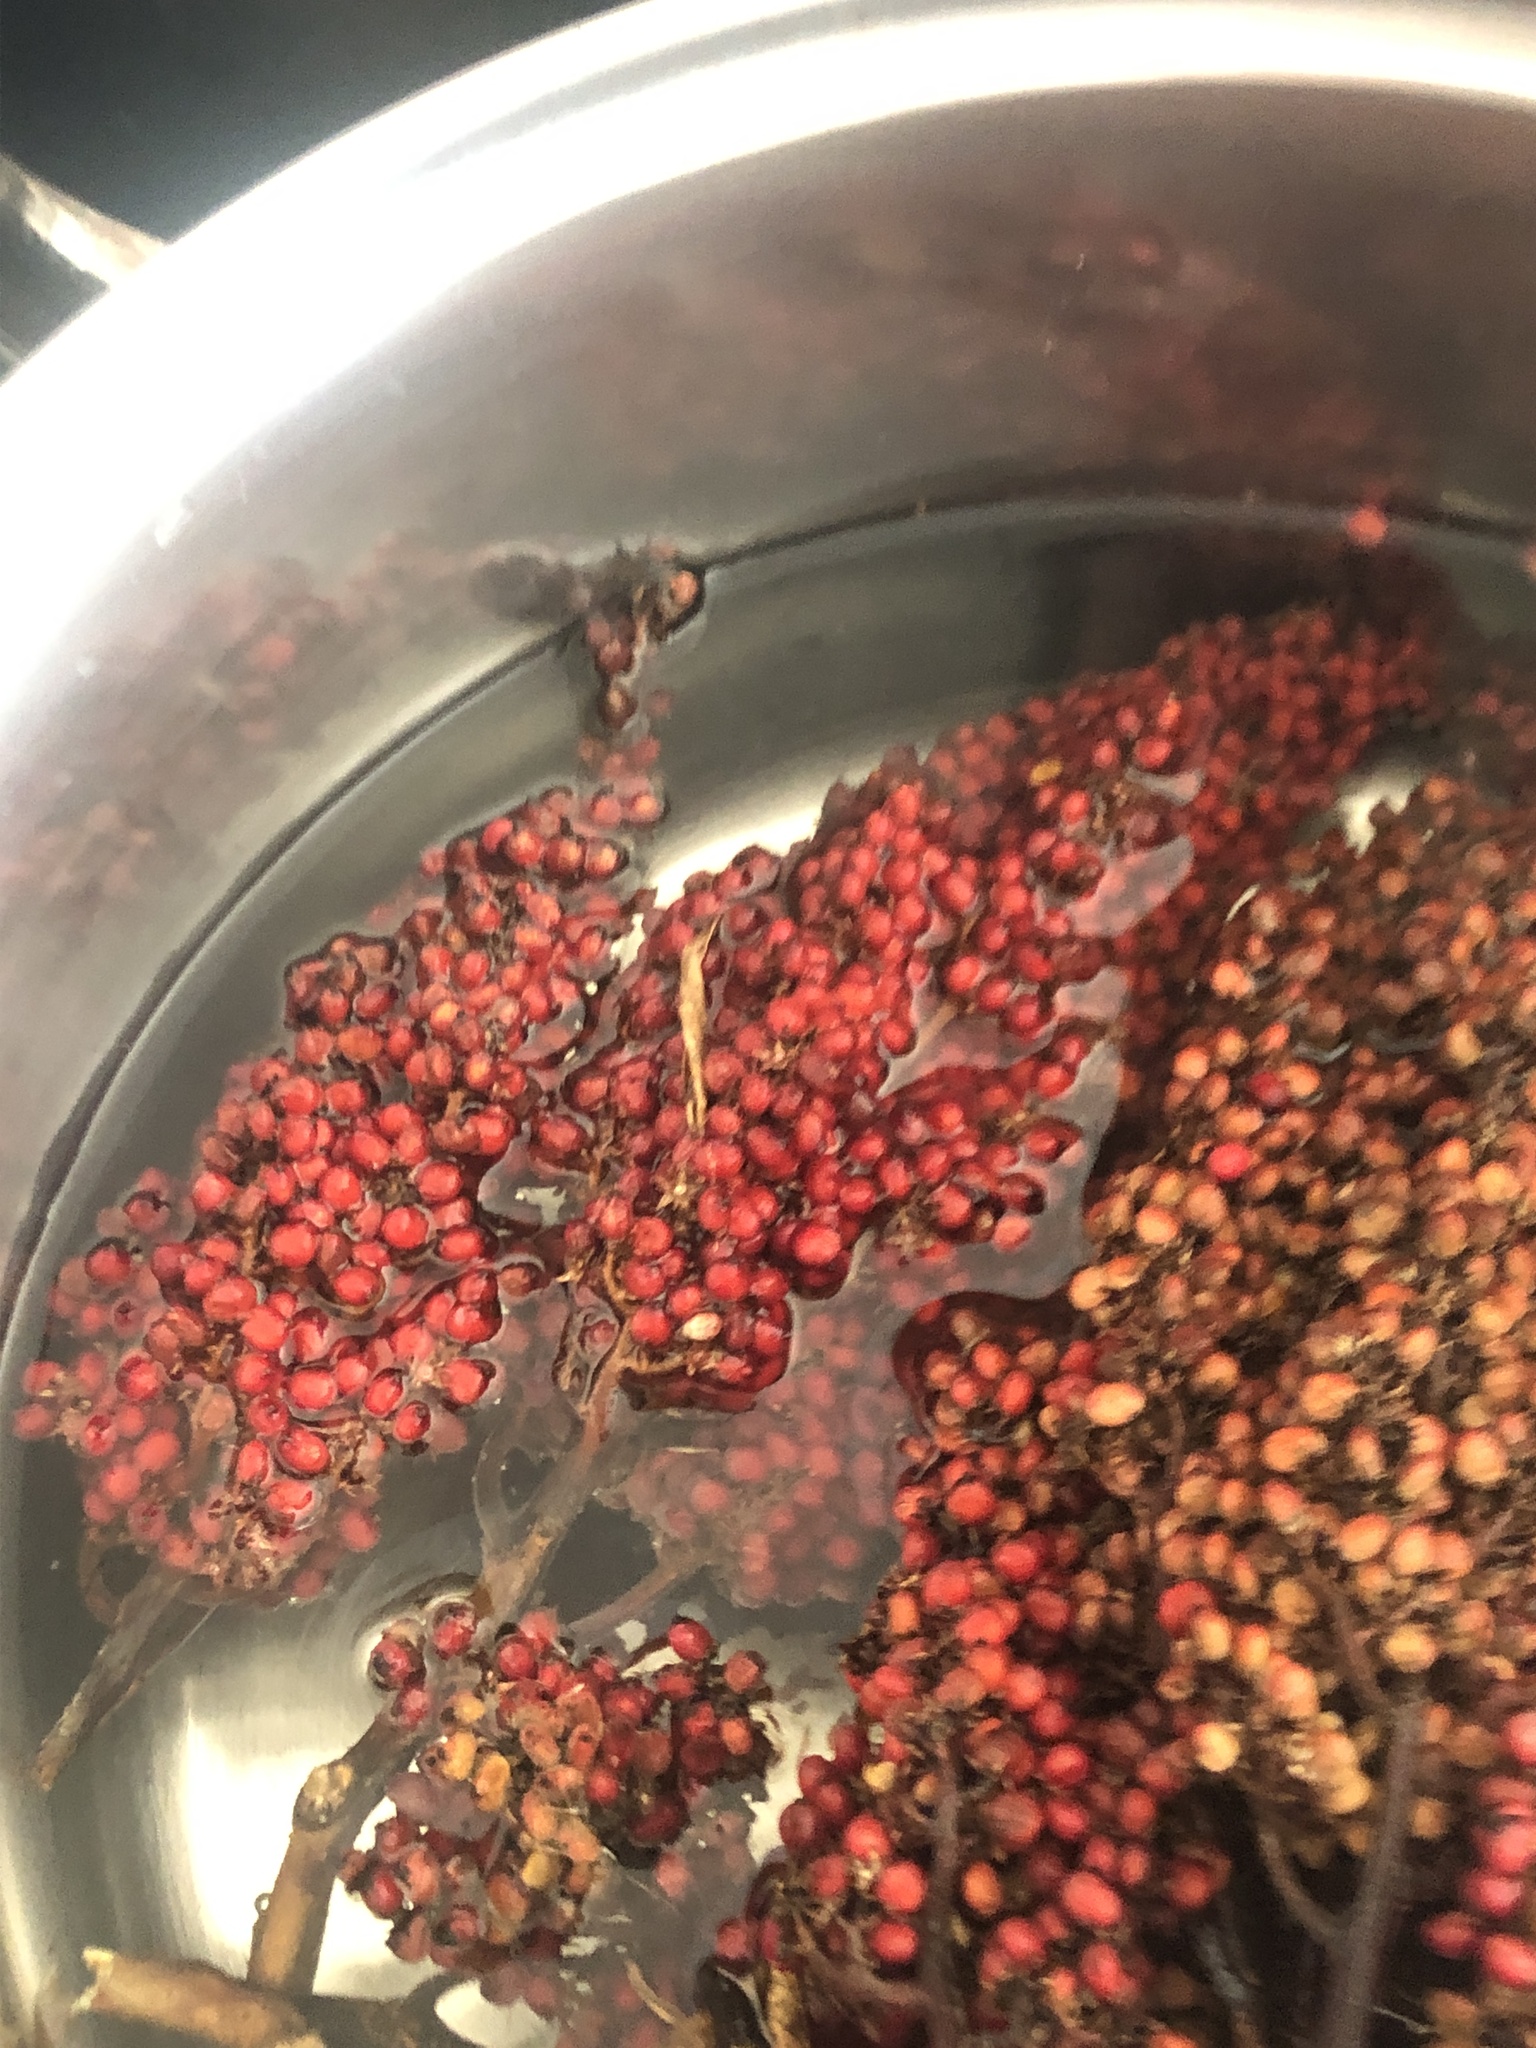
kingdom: Plantae
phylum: Tracheophyta
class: Magnoliopsida
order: Sapindales
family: Anacardiaceae
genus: Rhus
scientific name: Rhus glabra
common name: Scarlet sumac
